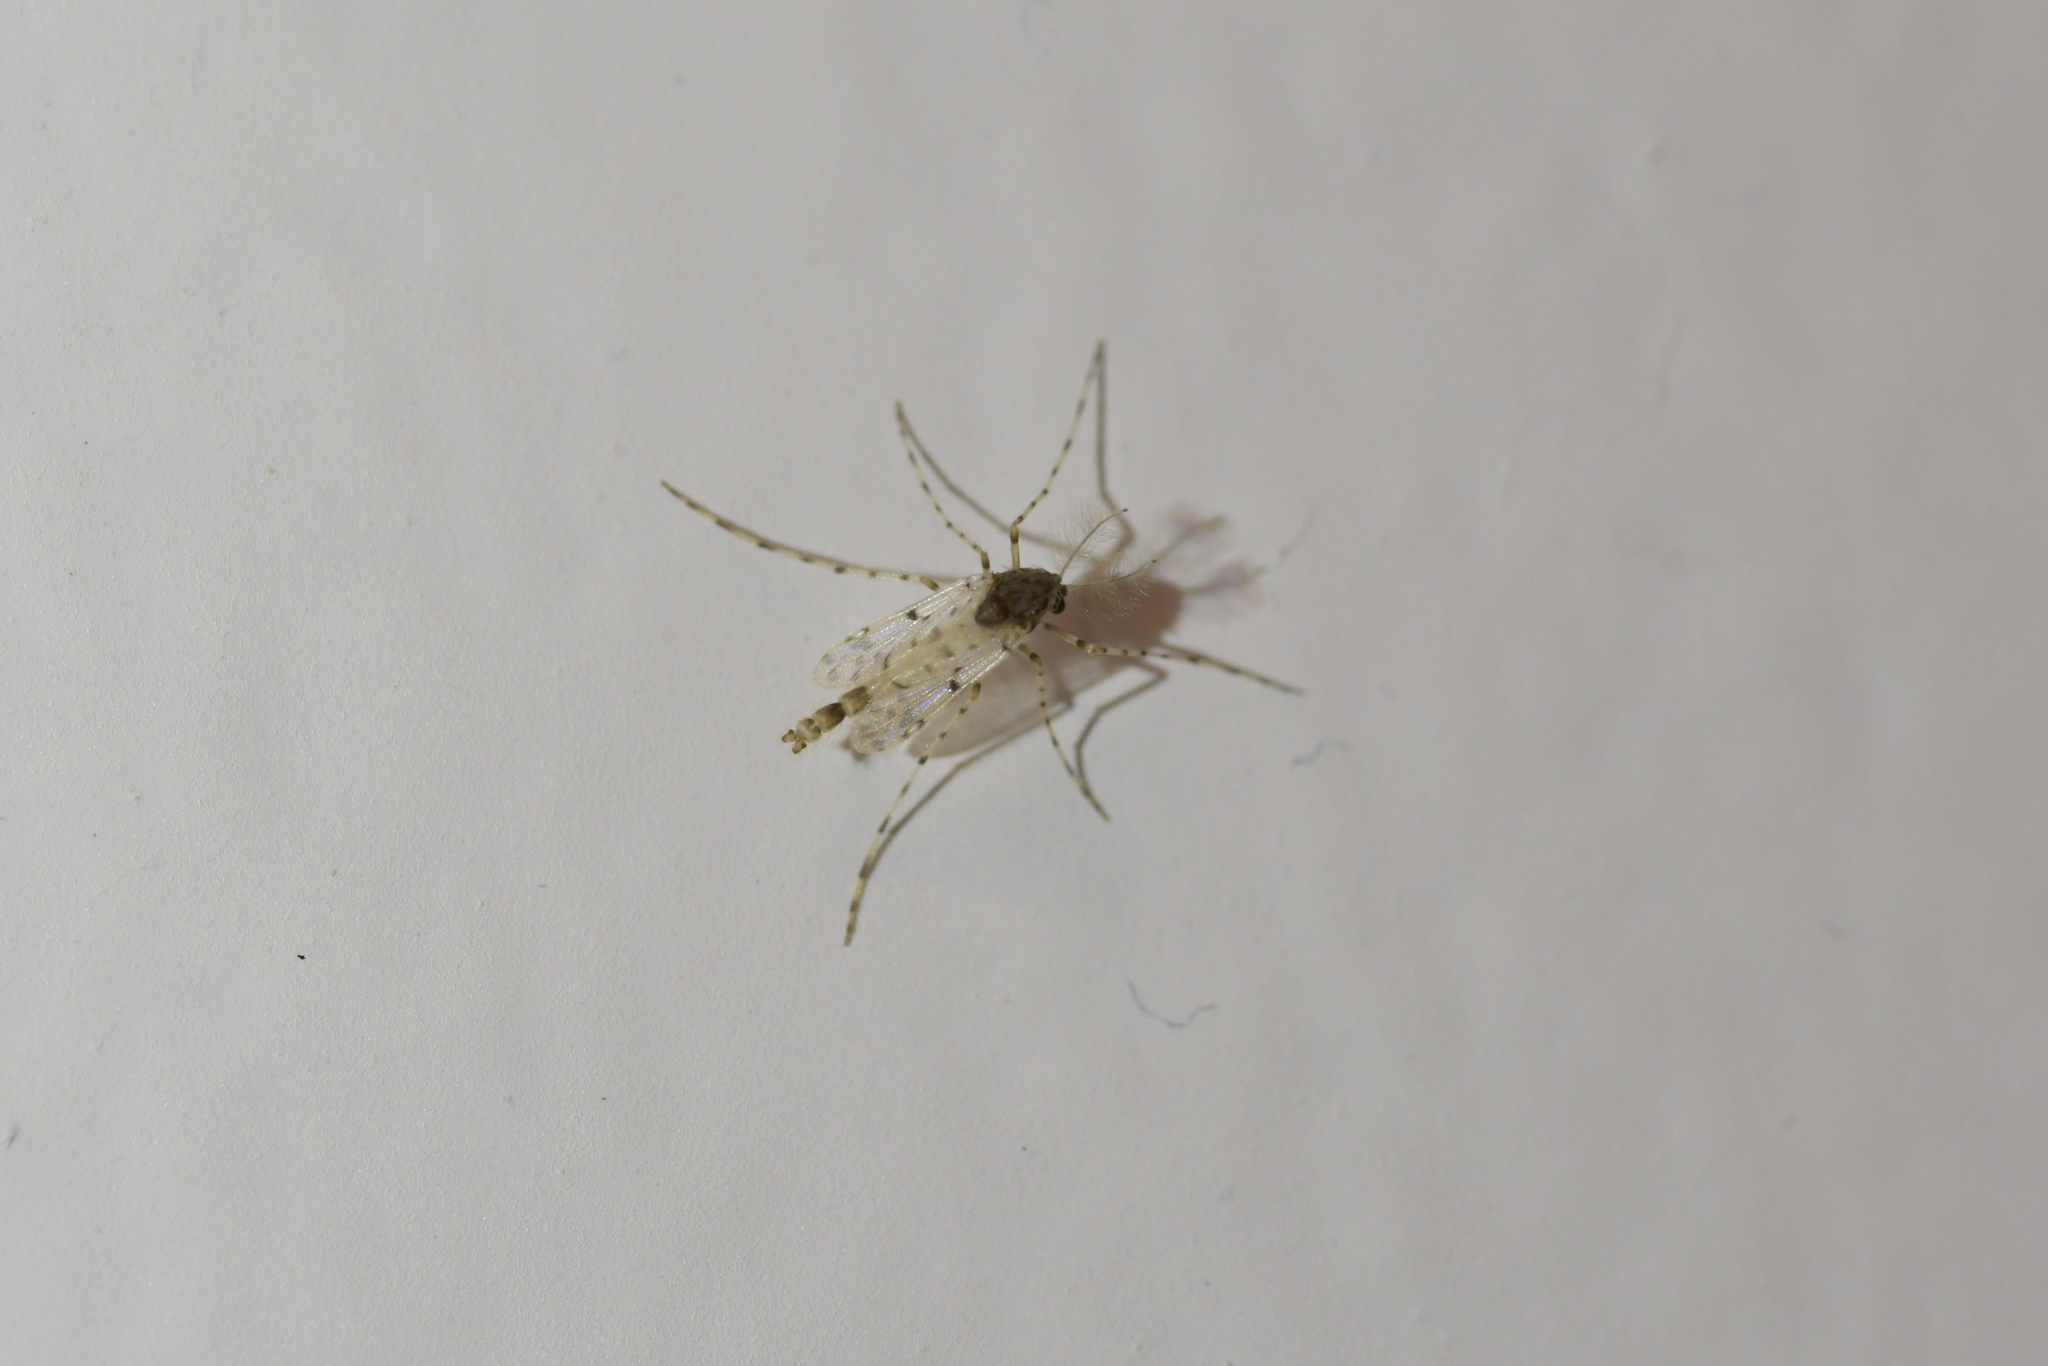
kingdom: Animalia
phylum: Arthropoda
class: Insecta
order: Diptera
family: Chironomidae
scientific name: Chironomidae
